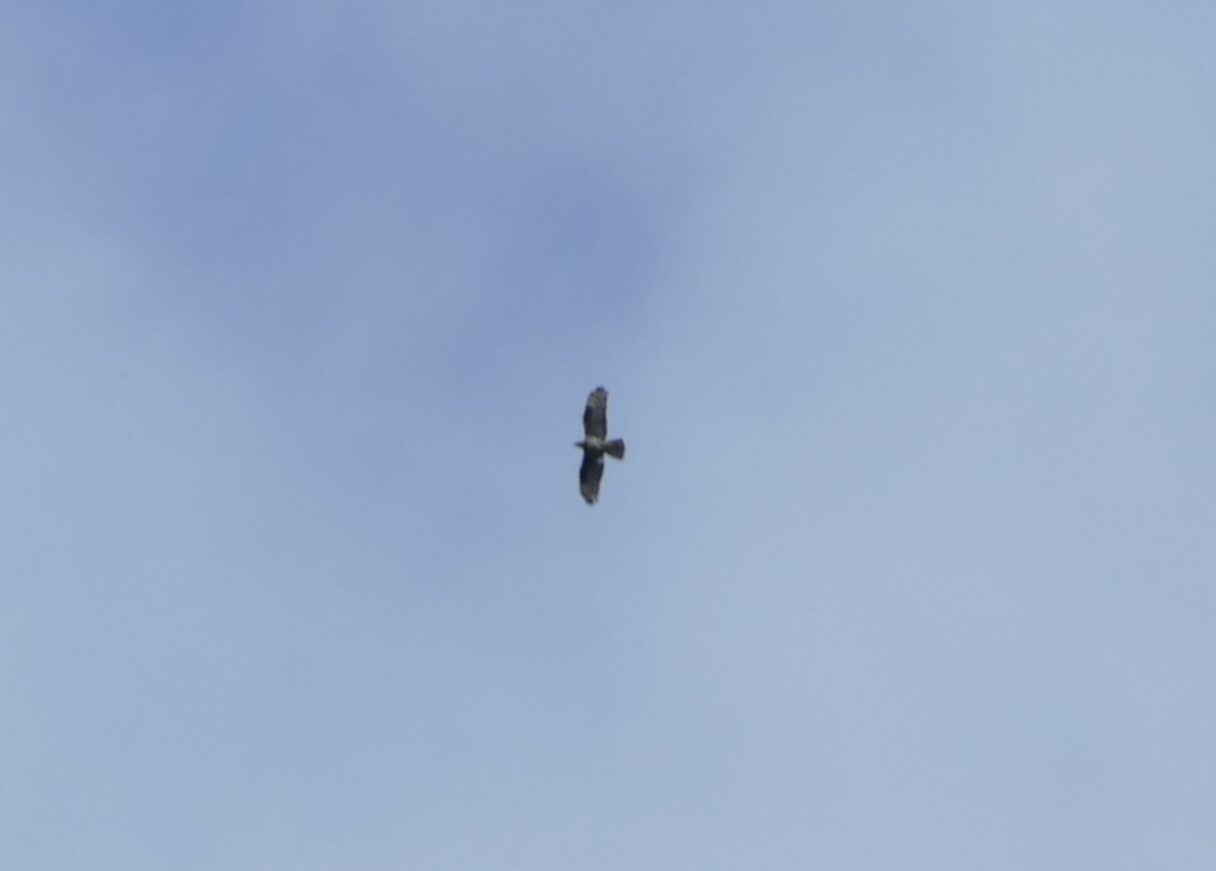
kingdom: Animalia
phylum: Chordata
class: Aves
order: Accipitriformes
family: Accipitridae
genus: Pernis
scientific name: Pernis apivorus
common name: European honey buzzard
